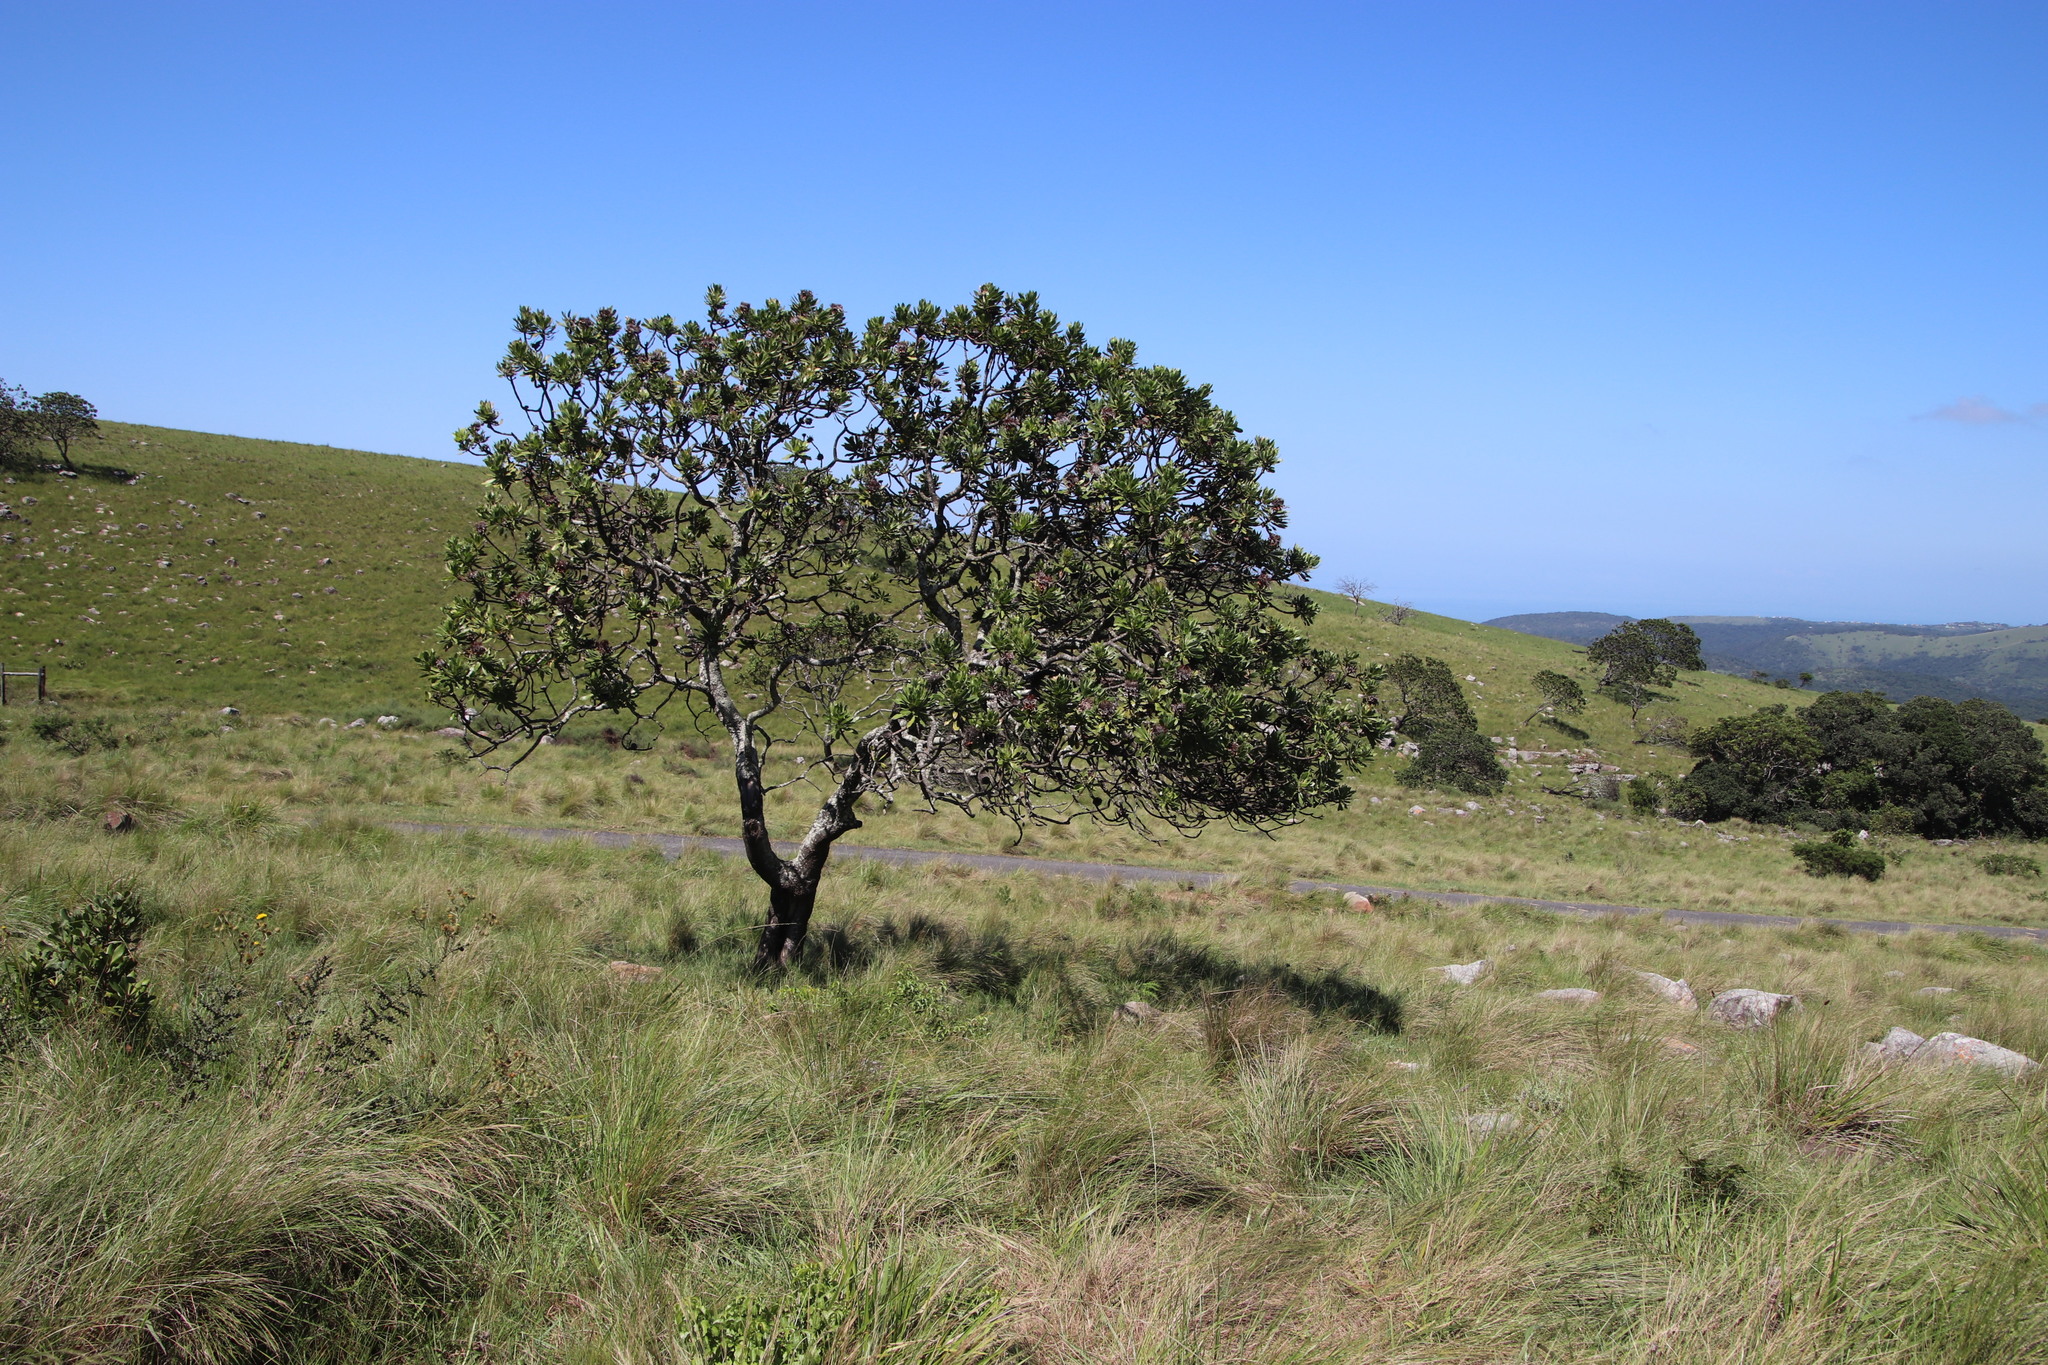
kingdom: Plantae
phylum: Tracheophyta
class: Magnoliopsida
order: Proteales
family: Proteaceae
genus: Protea
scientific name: Protea roupelliae
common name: Silver sugarbush
